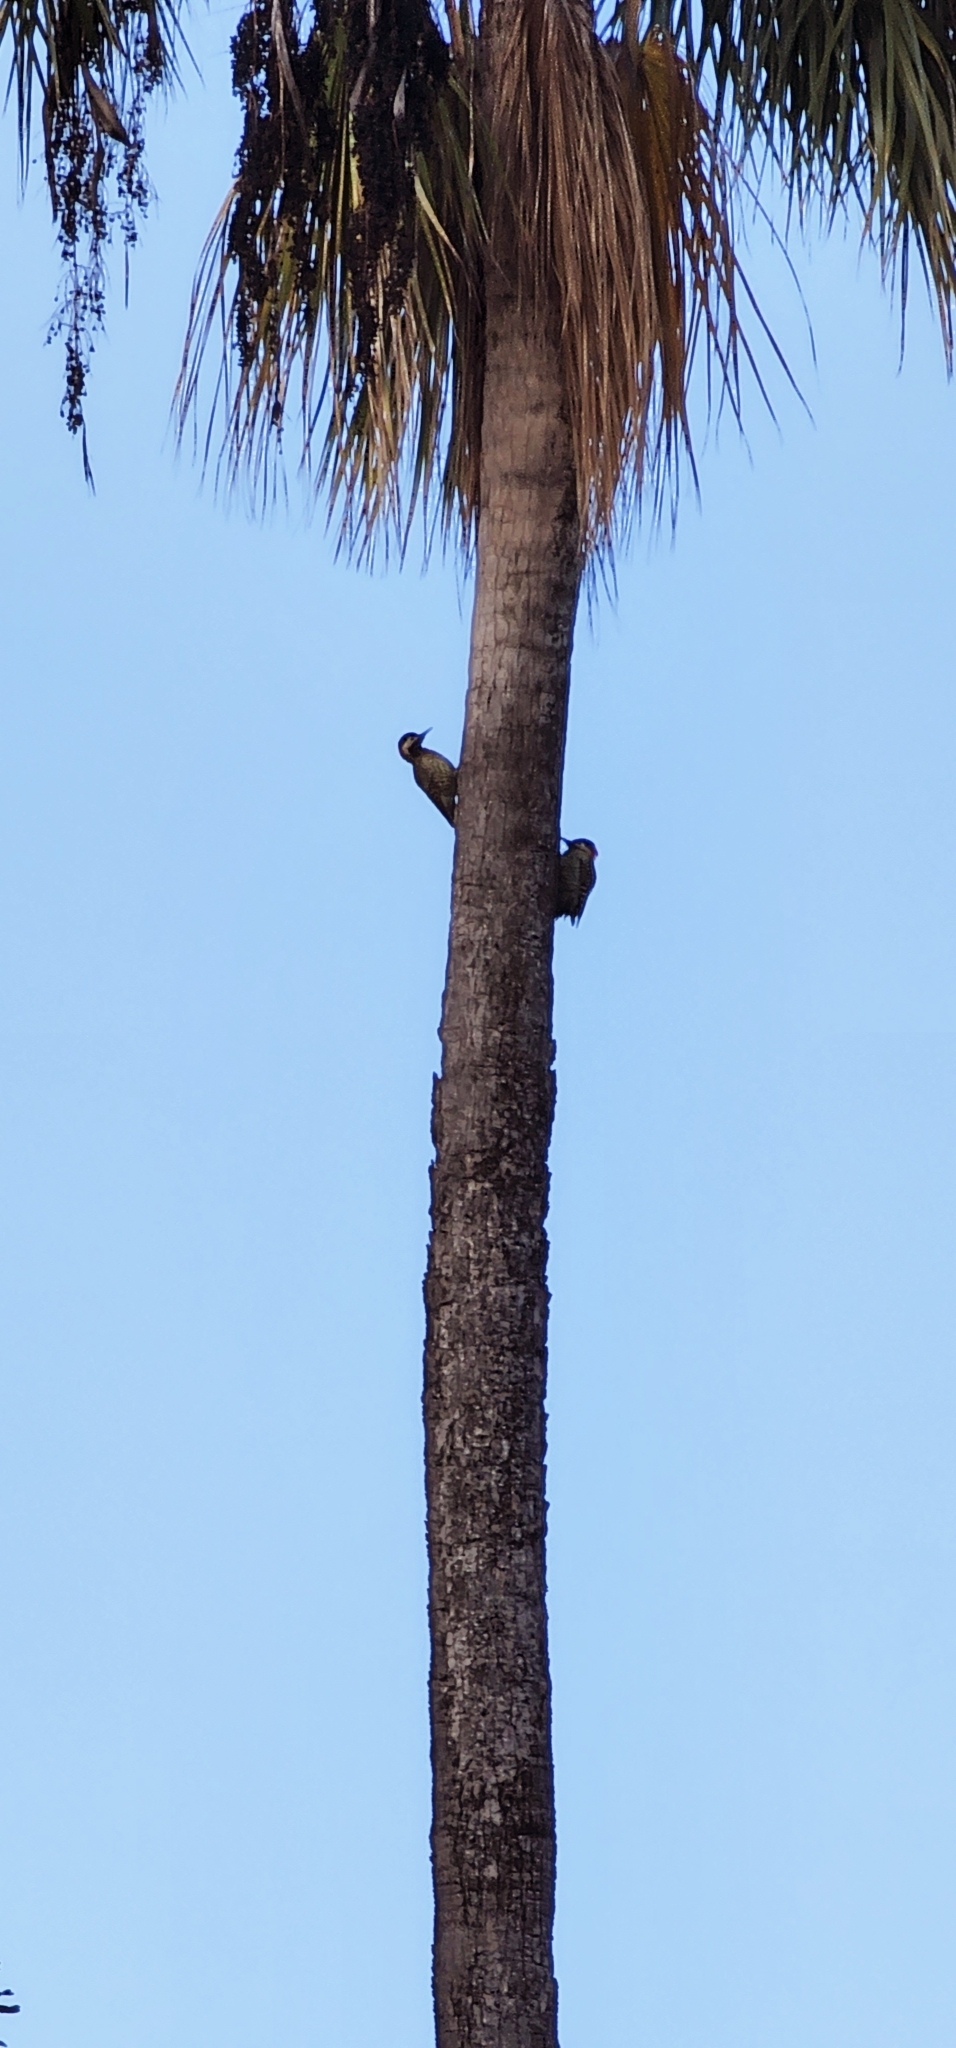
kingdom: Animalia
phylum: Chordata
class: Aves
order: Piciformes
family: Picidae
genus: Colaptes
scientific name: Colaptes melanochloros
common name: Green-barred woodpecker
